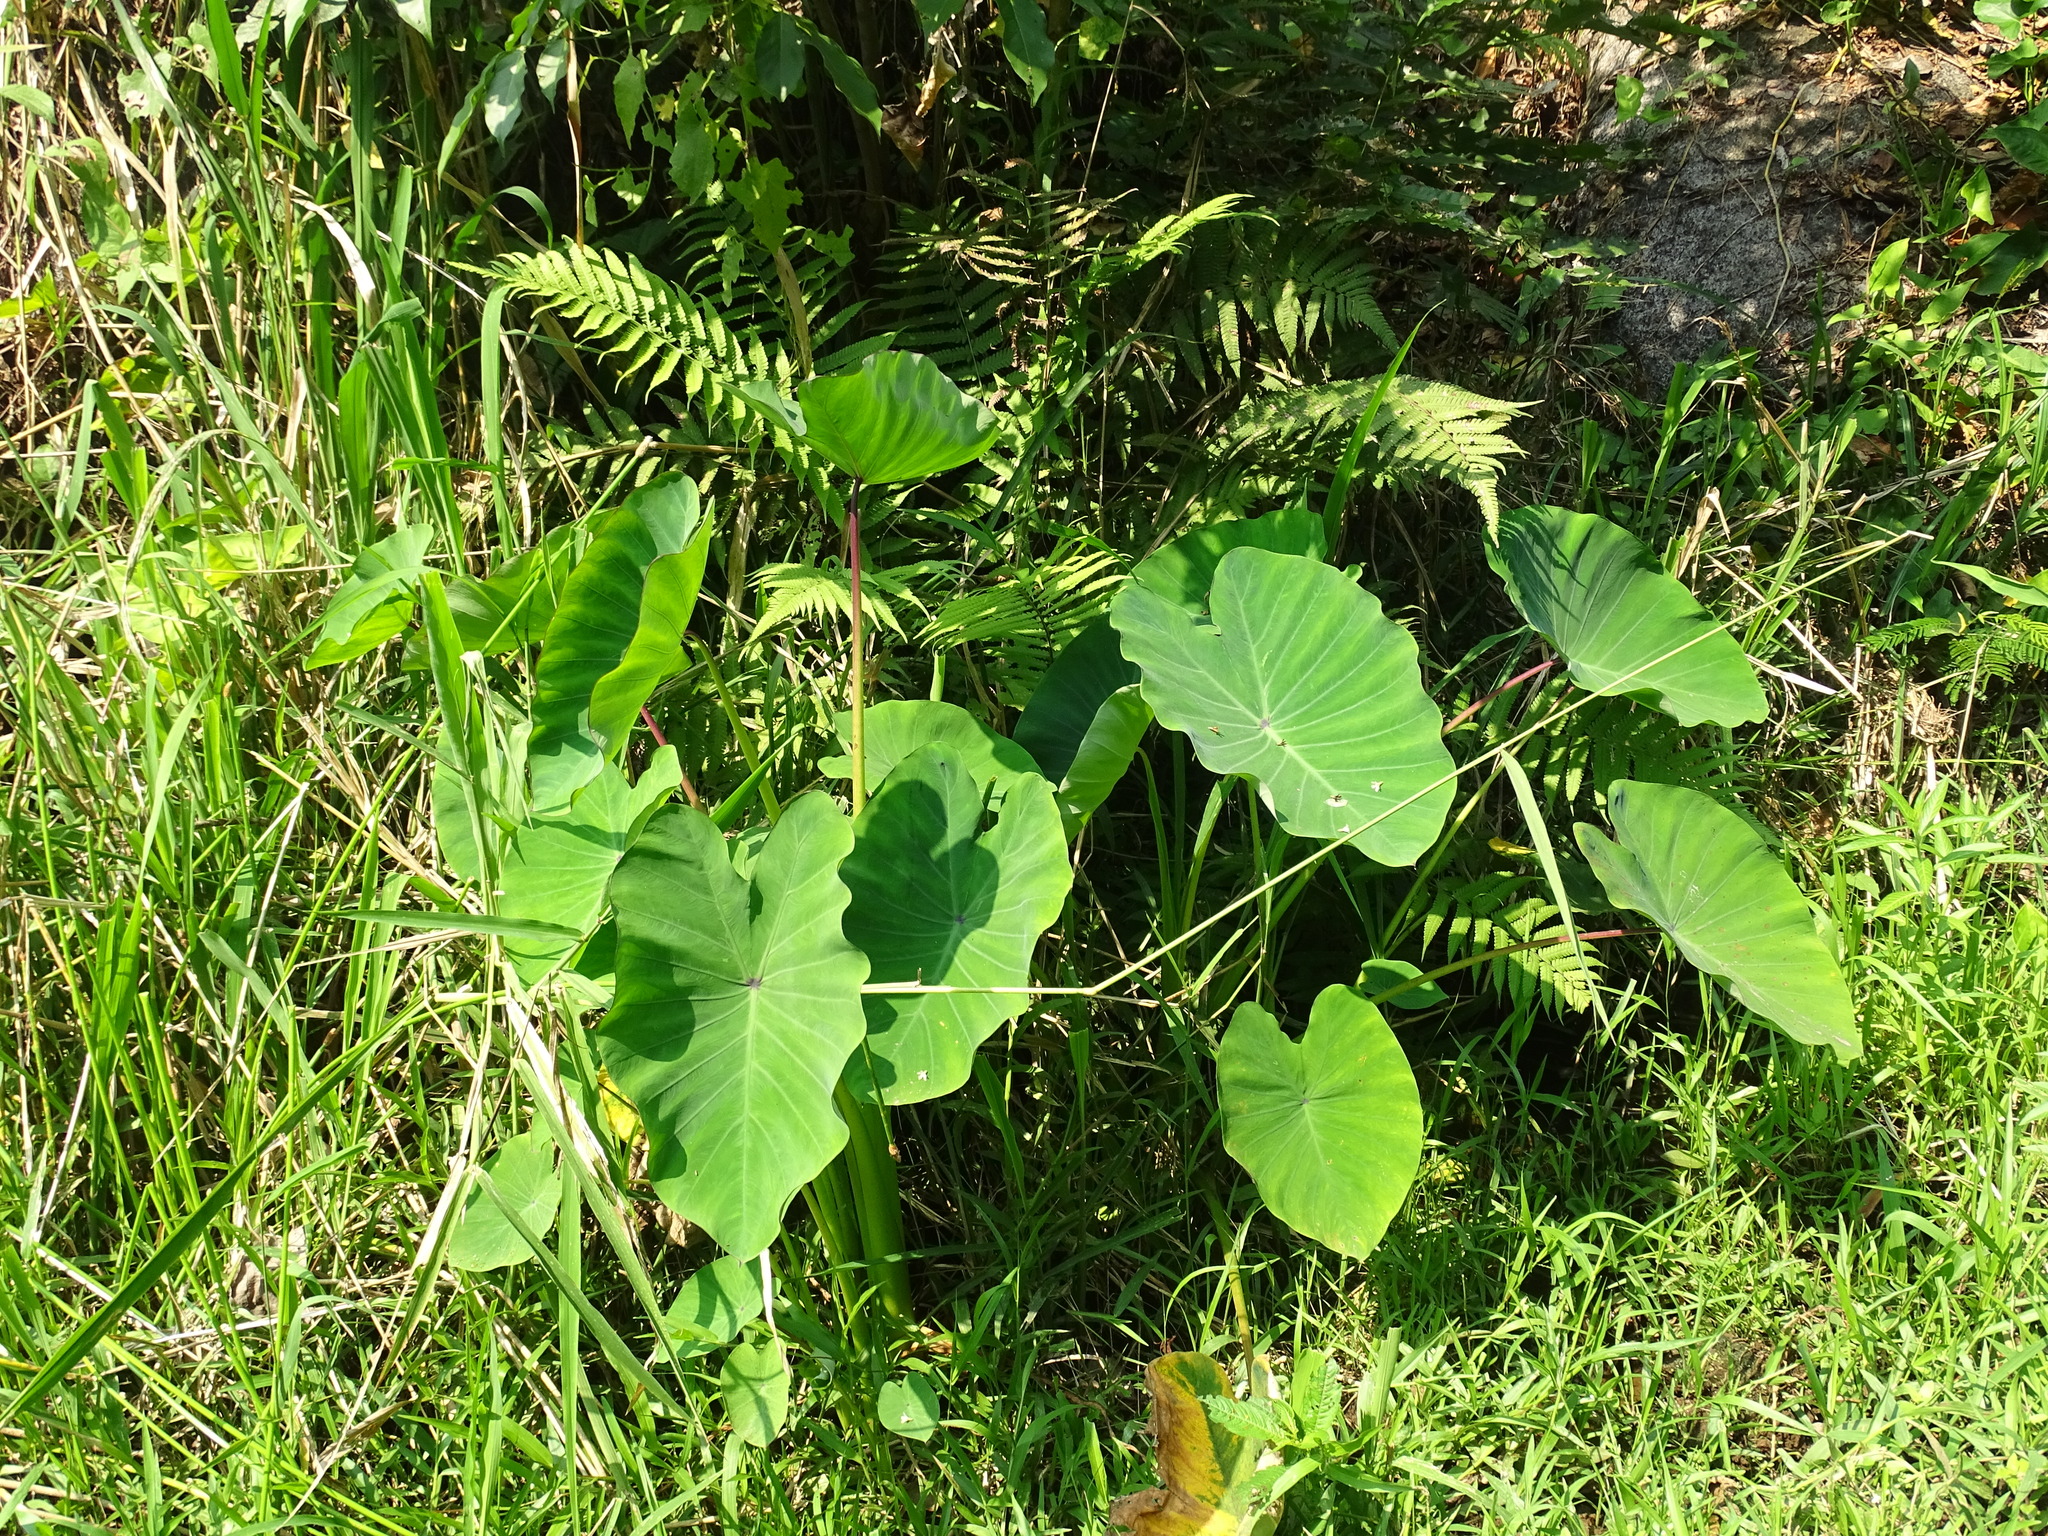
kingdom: Plantae
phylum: Tracheophyta
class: Liliopsida
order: Alismatales
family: Araceae
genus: Colocasia
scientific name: Colocasia esculenta
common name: Taro
